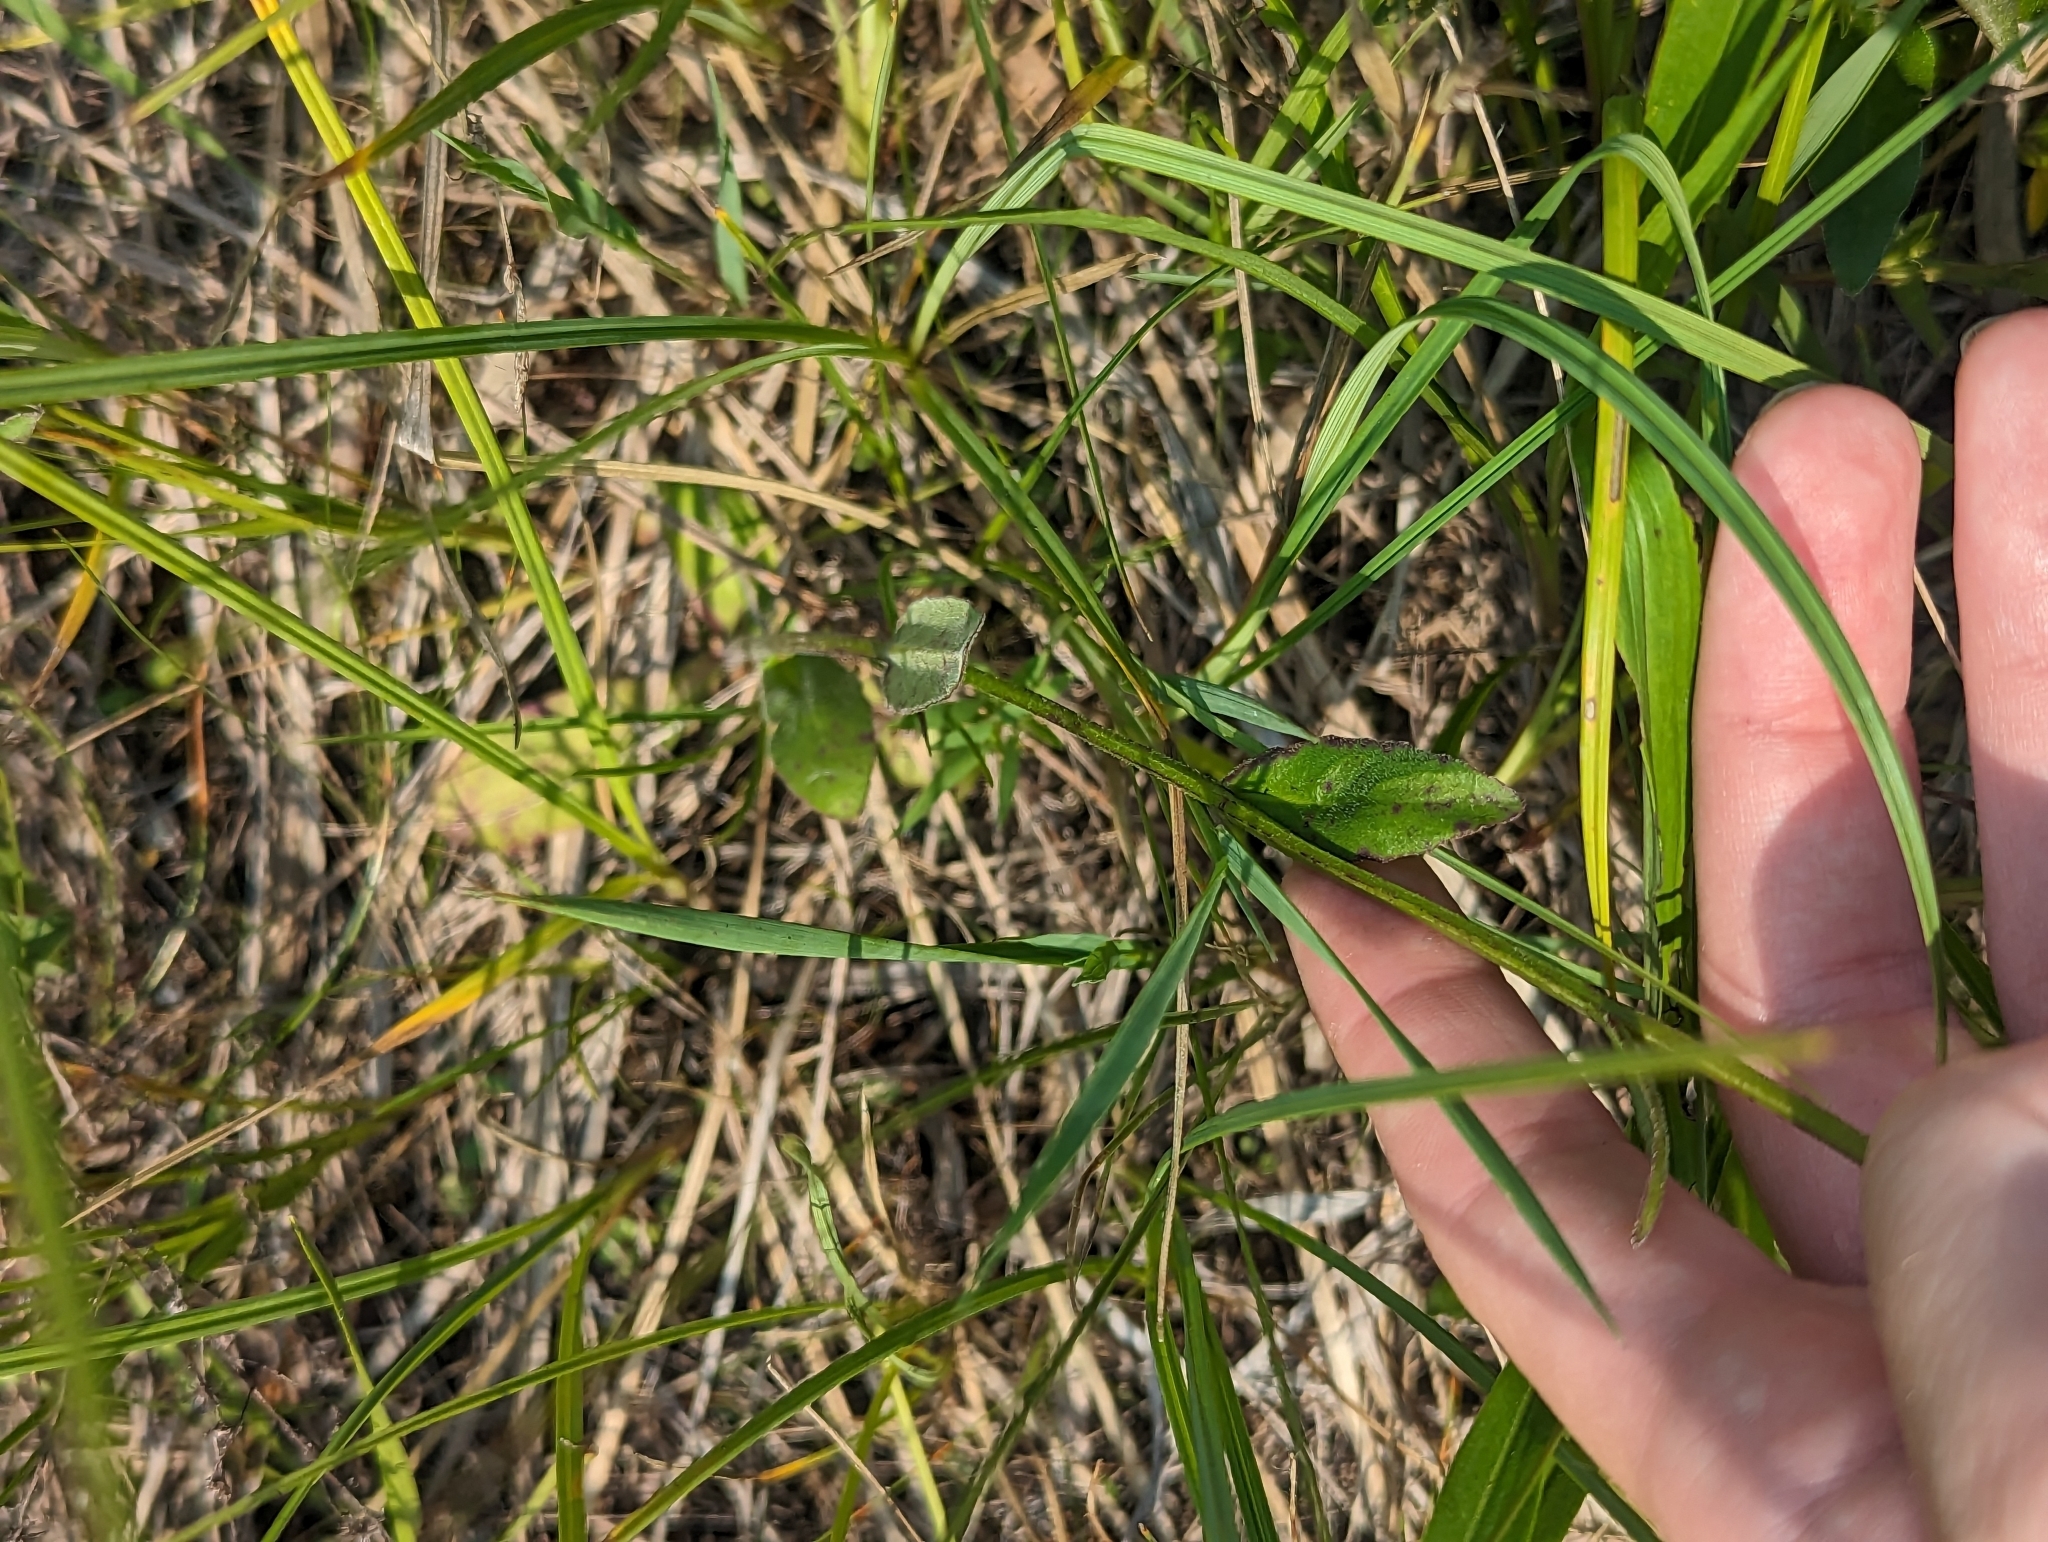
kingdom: Plantae
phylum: Tracheophyta
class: Magnoliopsida
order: Asterales
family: Campanulaceae
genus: Lobelia
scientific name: Lobelia spicata
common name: Pale-spike lobelia
